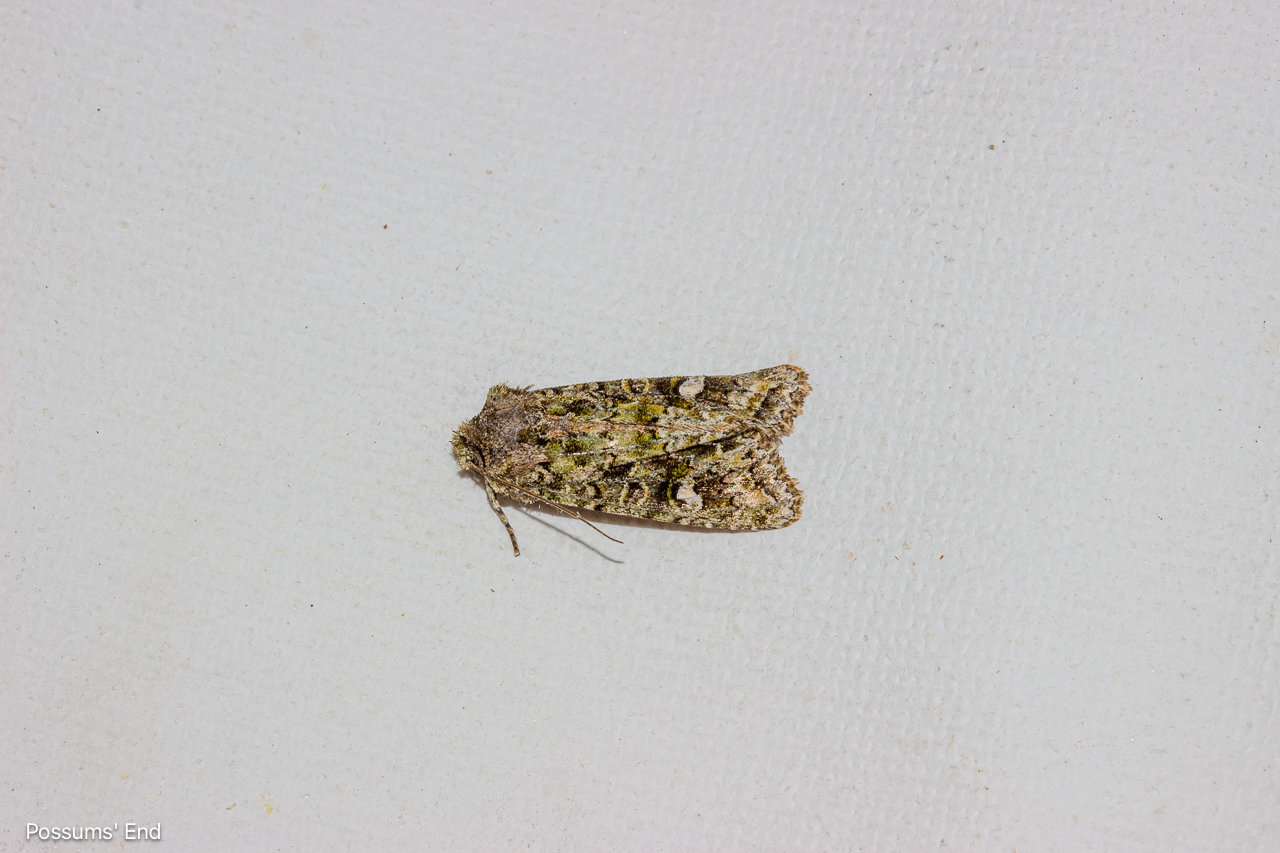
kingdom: Animalia
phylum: Arthropoda
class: Insecta
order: Lepidoptera
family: Noctuidae
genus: Ichneutica
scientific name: Ichneutica
